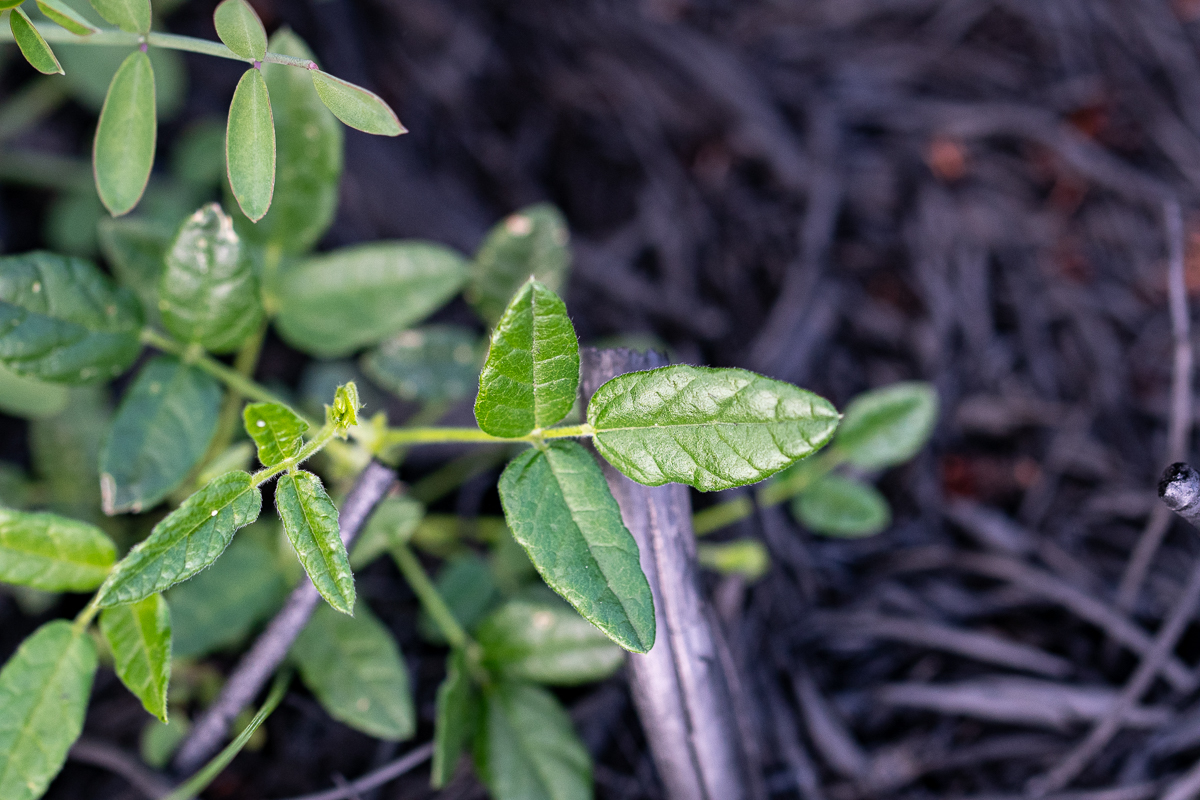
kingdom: Plantae
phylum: Tracheophyta
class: Magnoliopsida
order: Fabales
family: Fabaceae
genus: Bolusafra
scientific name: Bolusafra bituminosa
